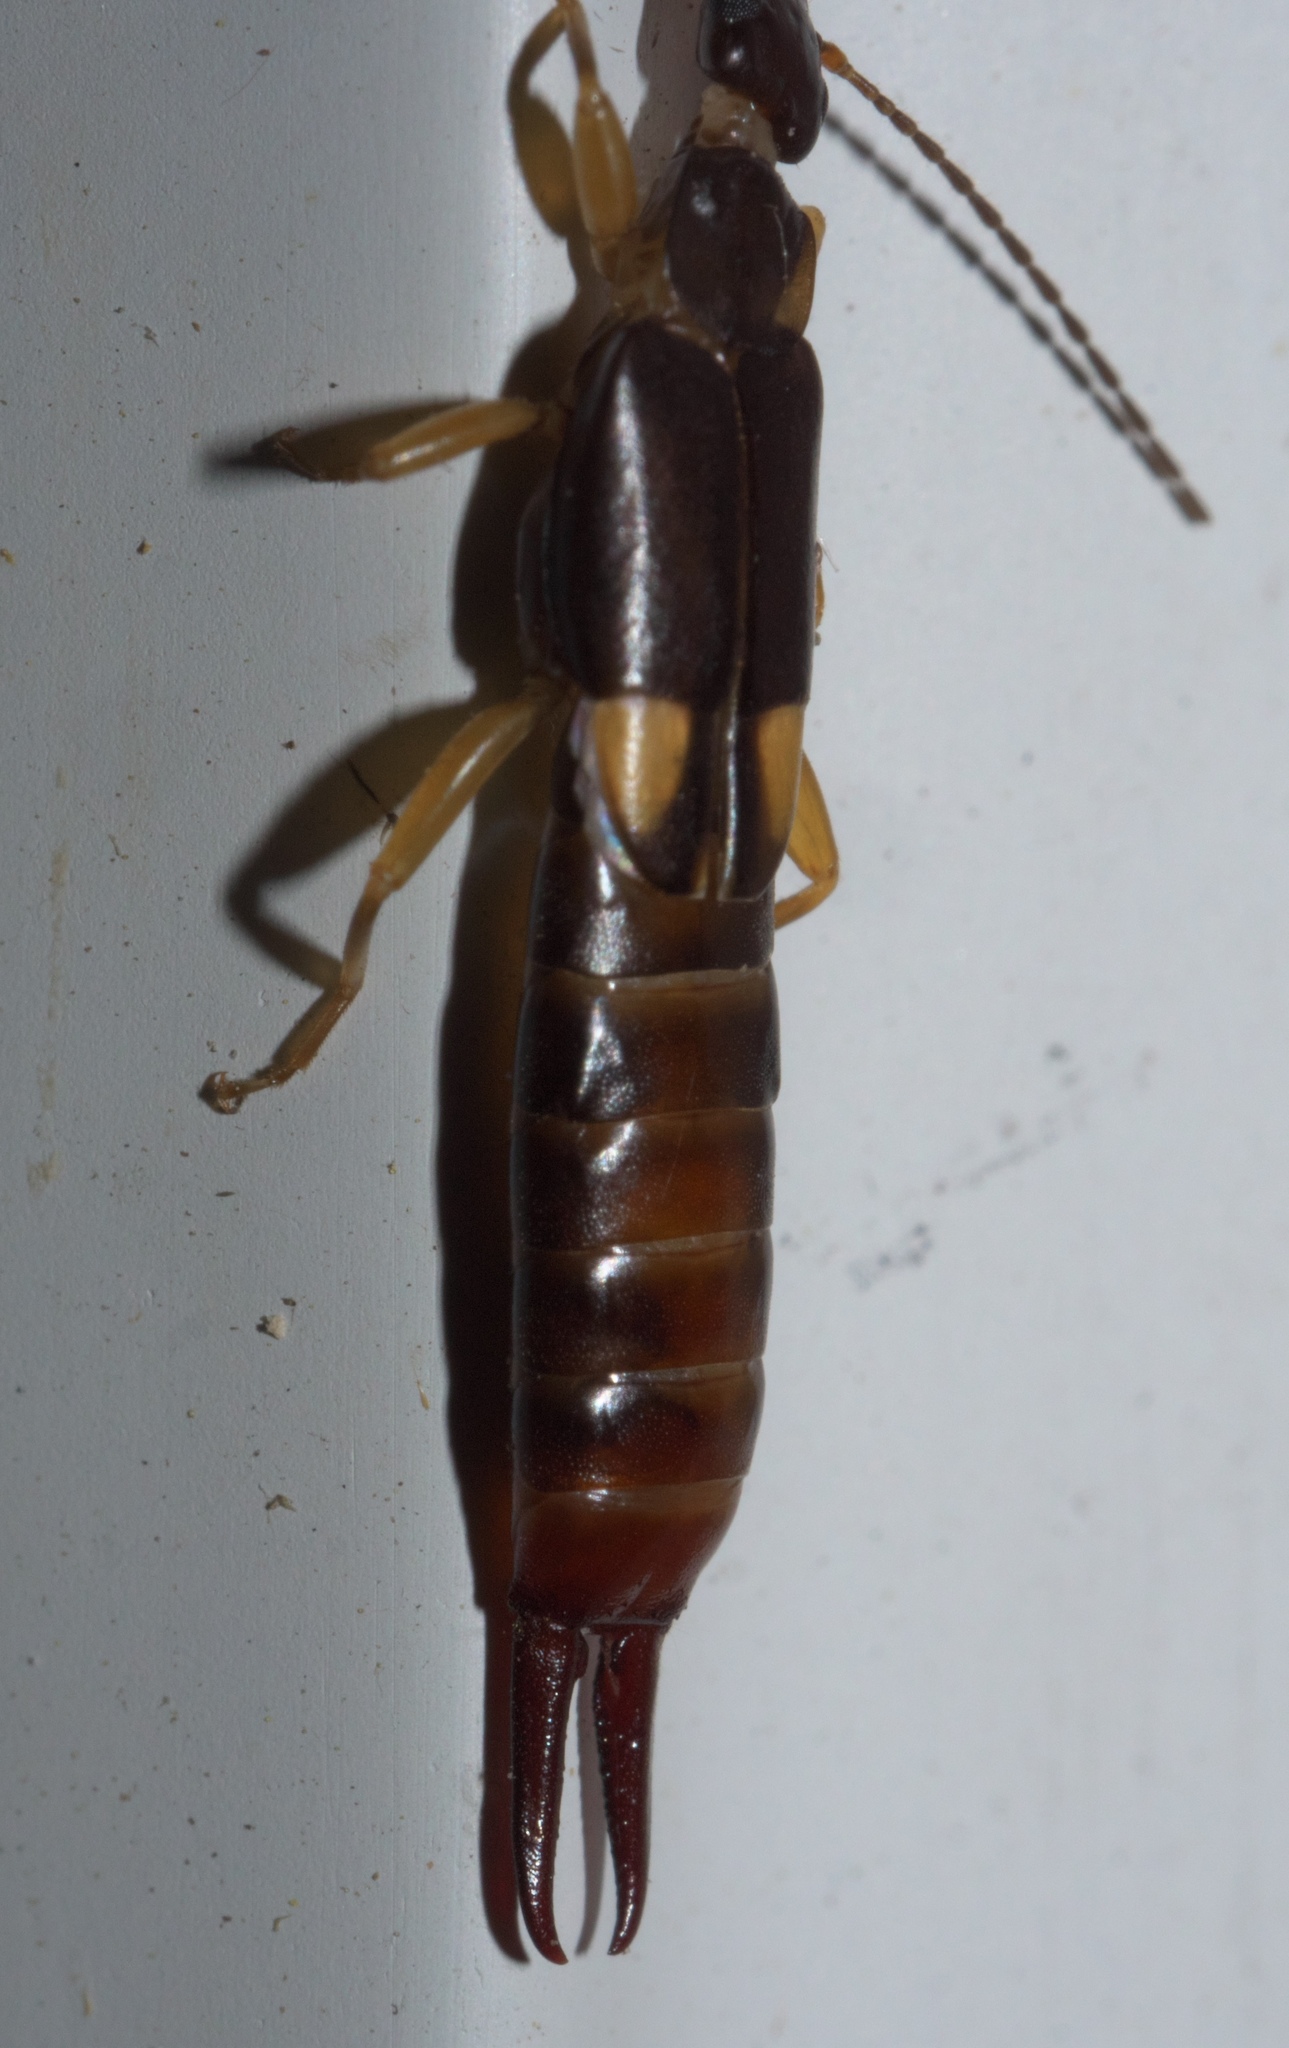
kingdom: Animalia
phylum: Arthropoda
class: Insecta
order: Dermaptera
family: Spongiphoridae
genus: Vostox
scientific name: Vostox brunneipennis
